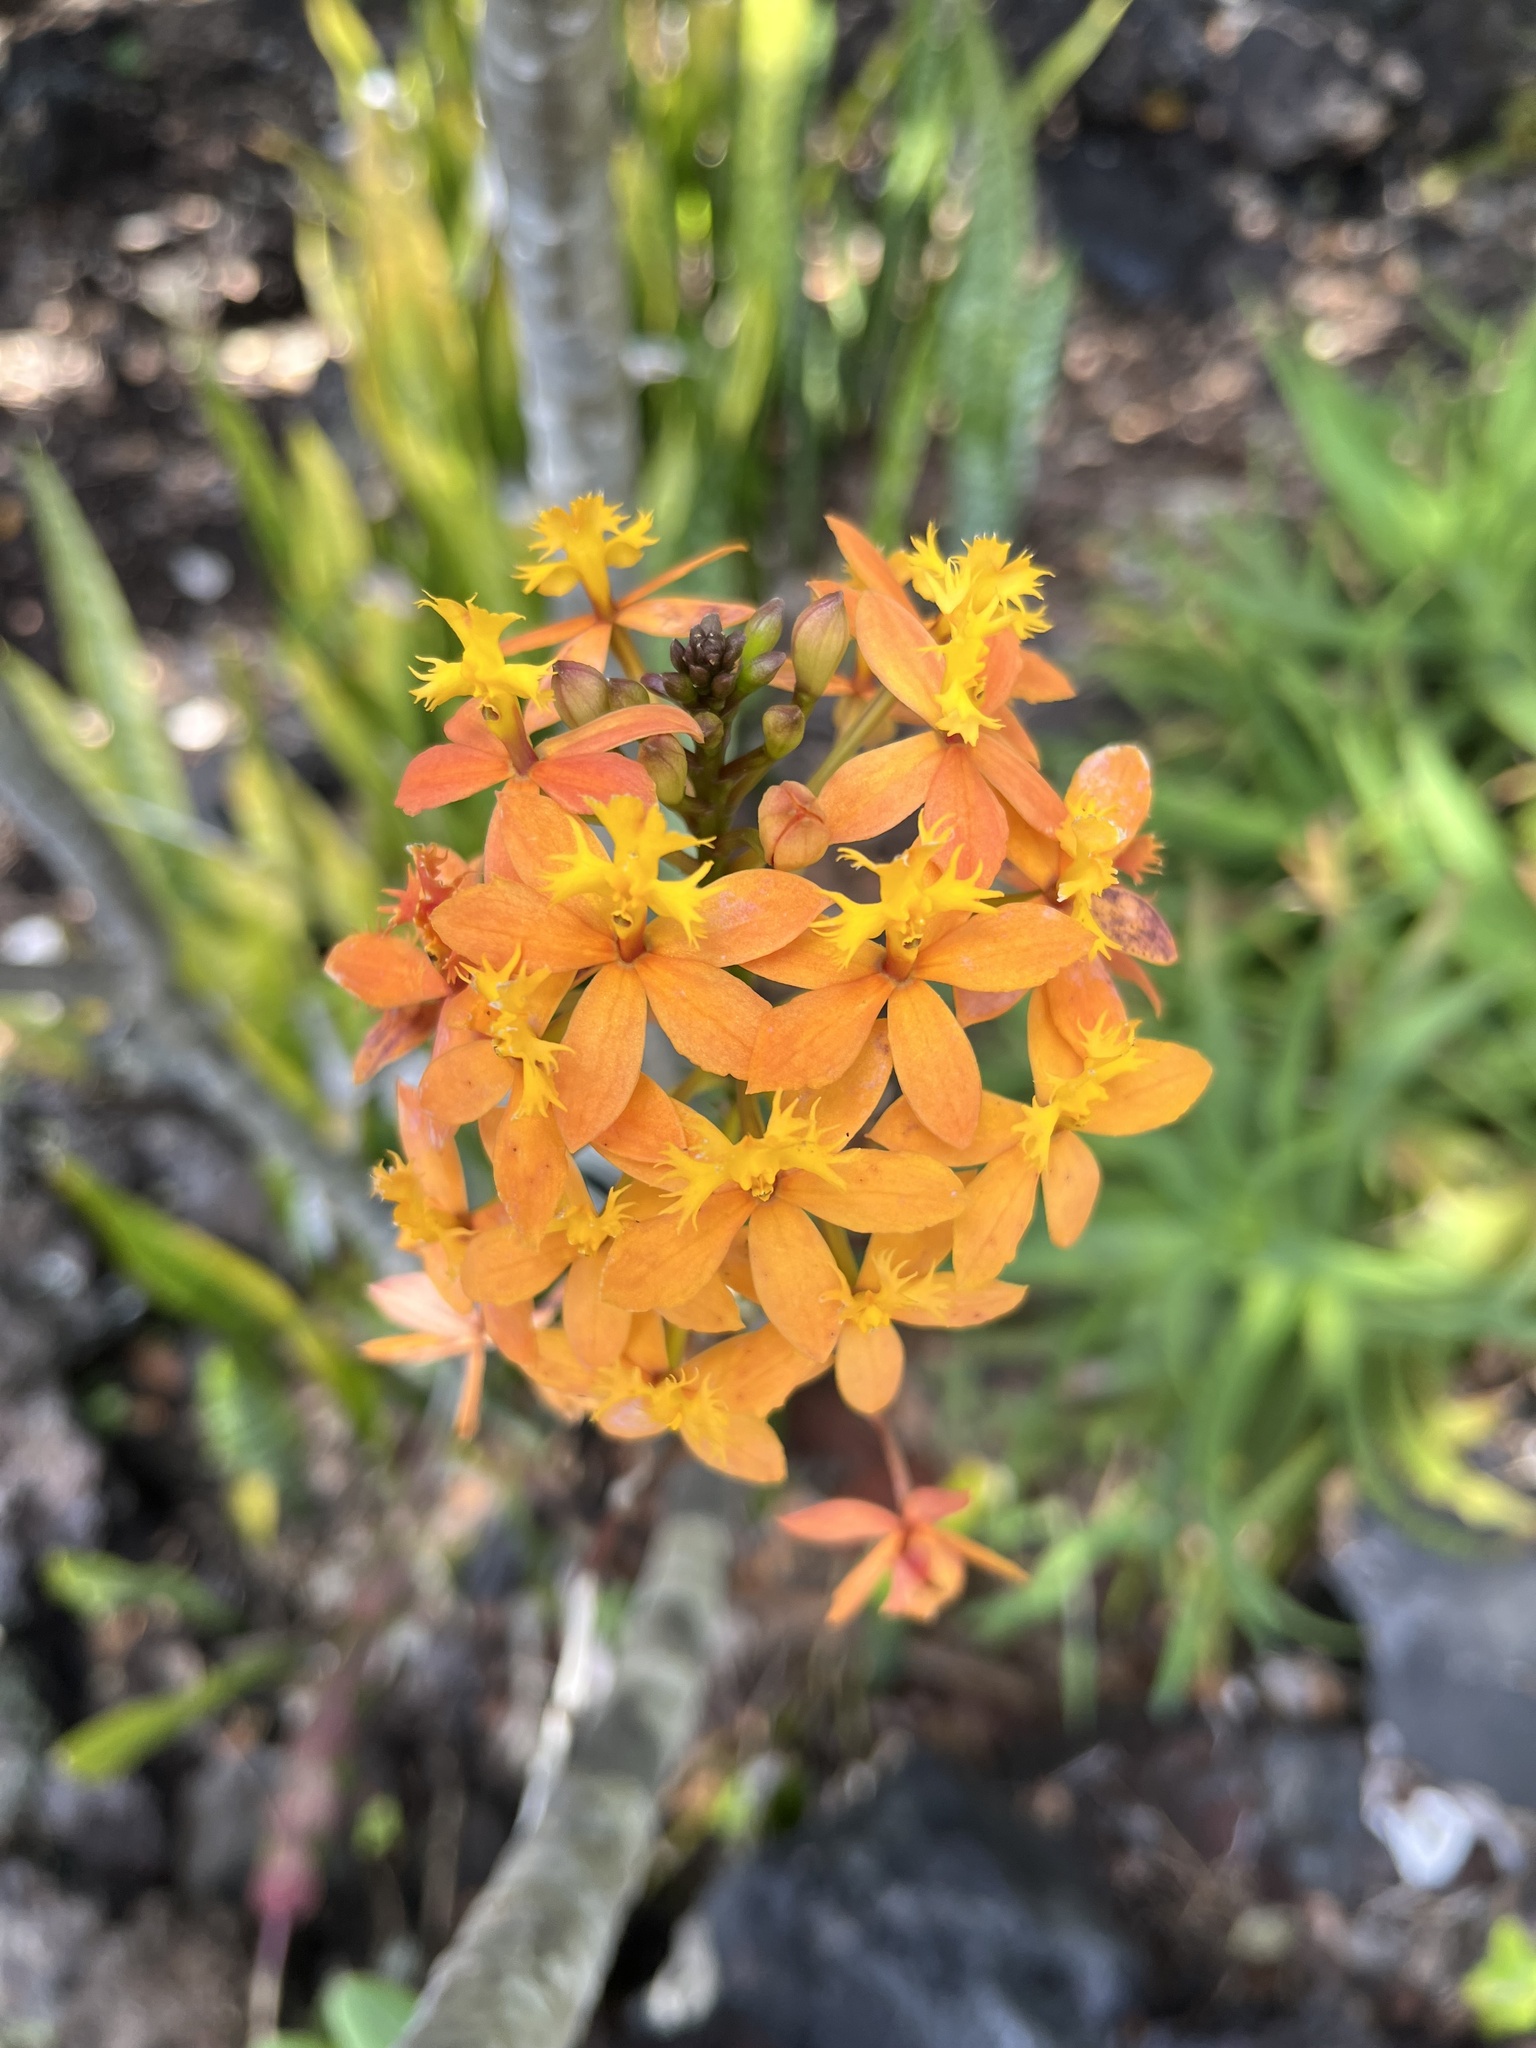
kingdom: Plantae
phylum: Tracheophyta
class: Liliopsida
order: Asparagales
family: Orchidaceae
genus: Epidendrum
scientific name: Epidendrum obrienianum
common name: O'brien's star orchid
